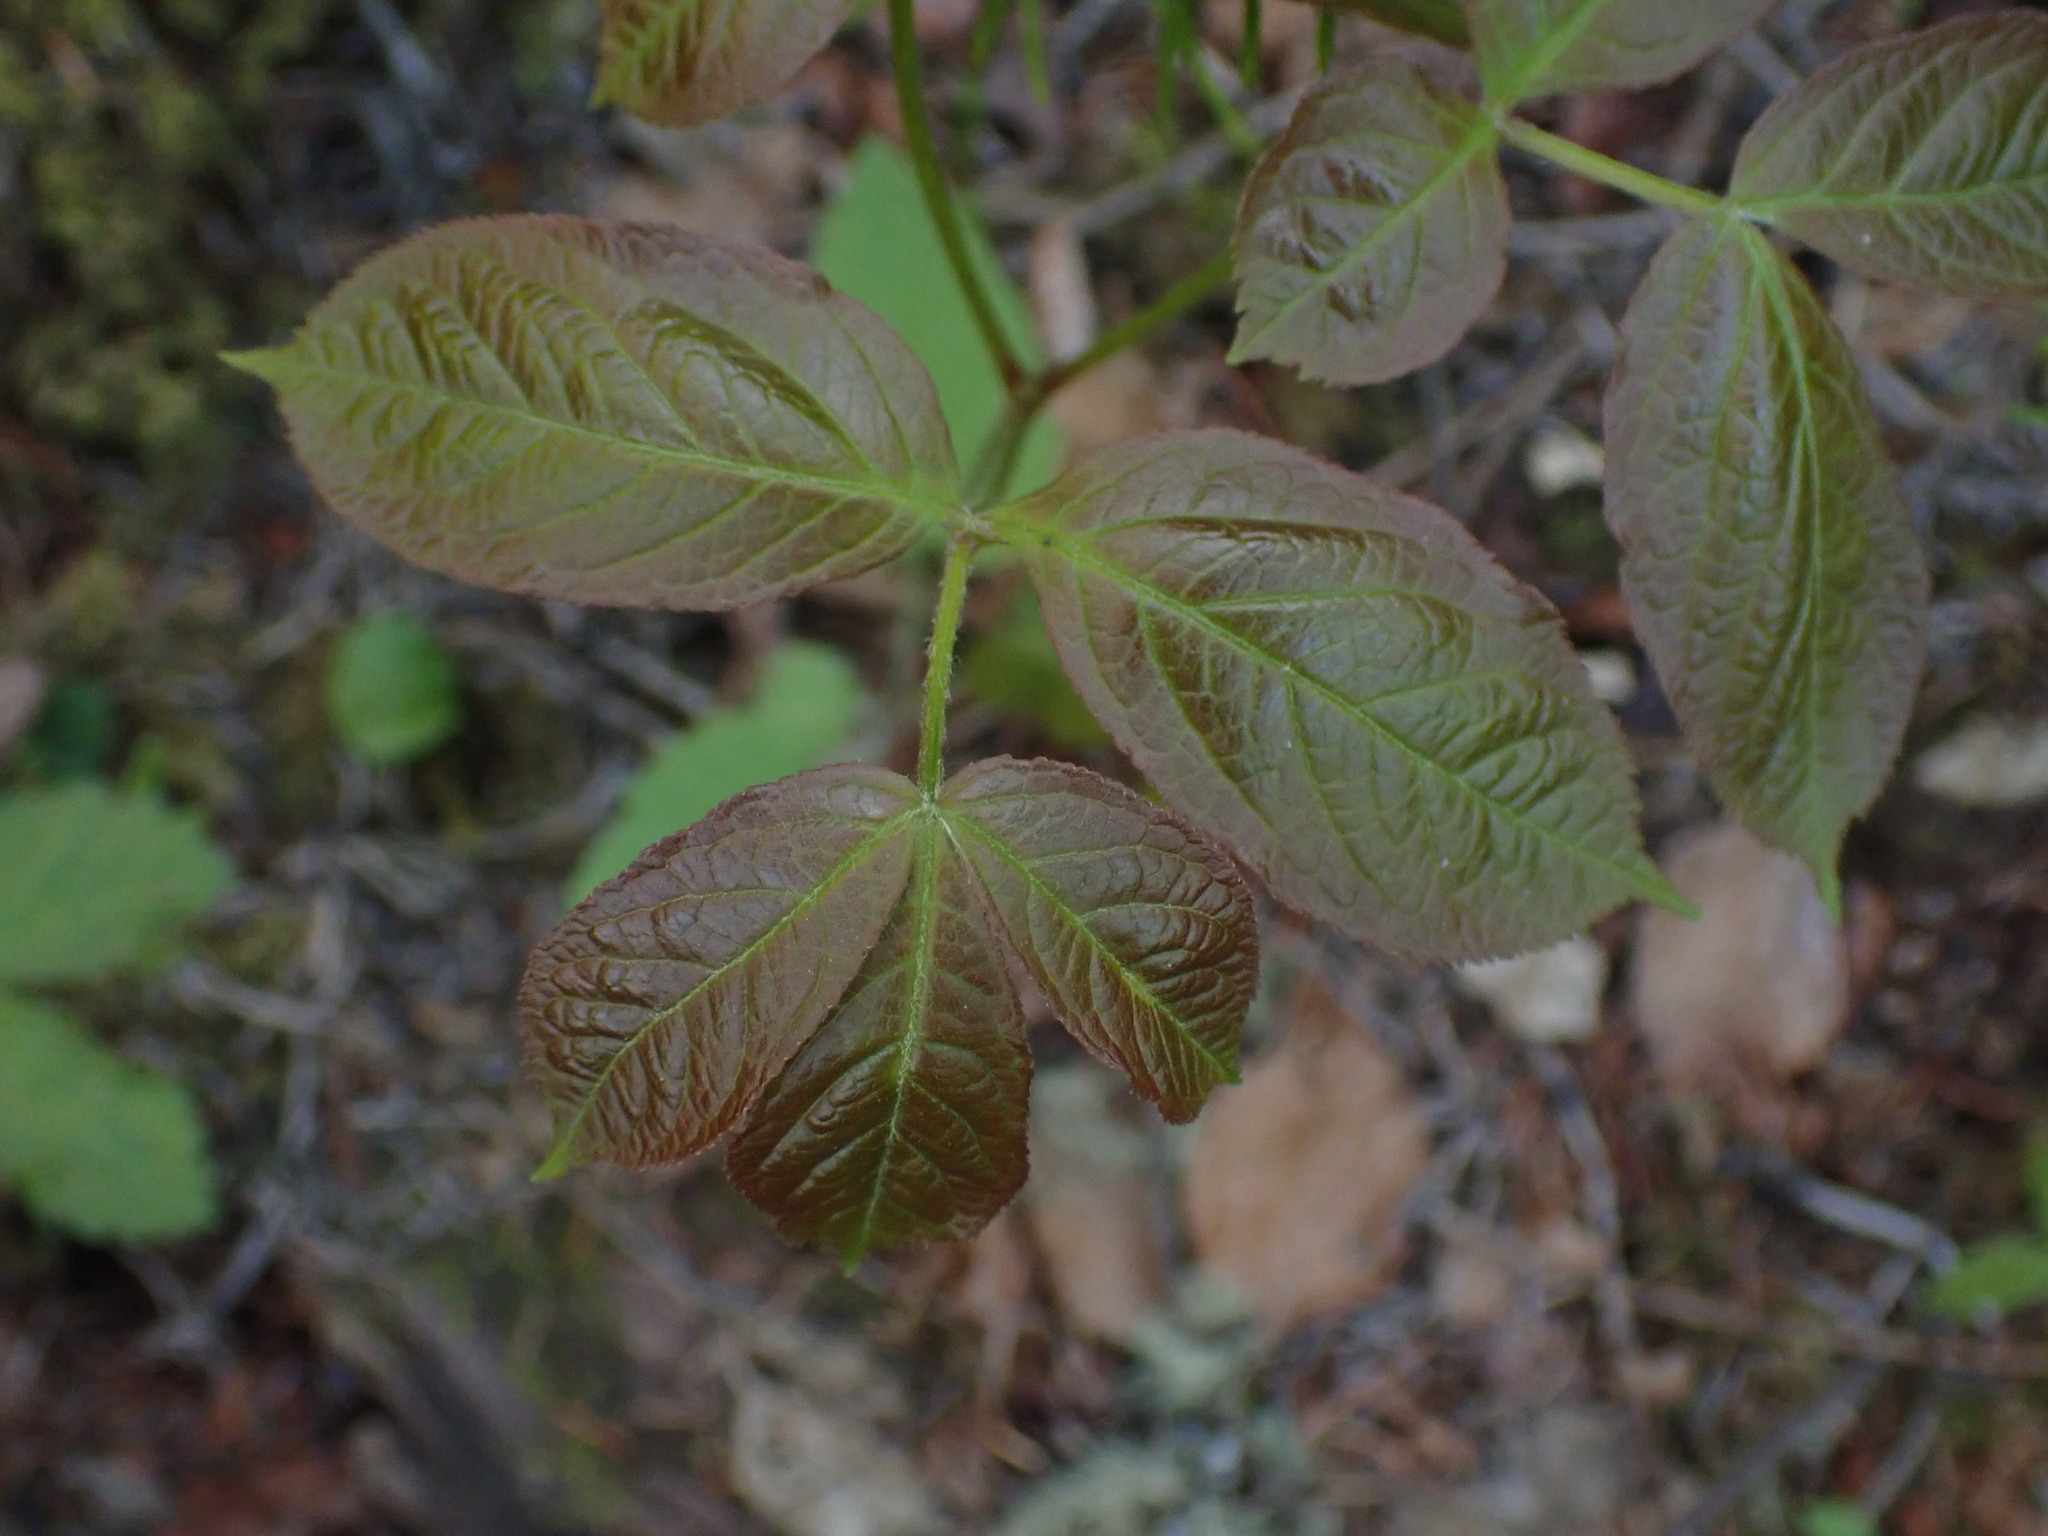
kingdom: Plantae
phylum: Tracheophyta
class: Magnoliopsida
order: Apiales
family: Araliaceae
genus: Aralia
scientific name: Aralia nudicaulis
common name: Wild sarsaparilla
